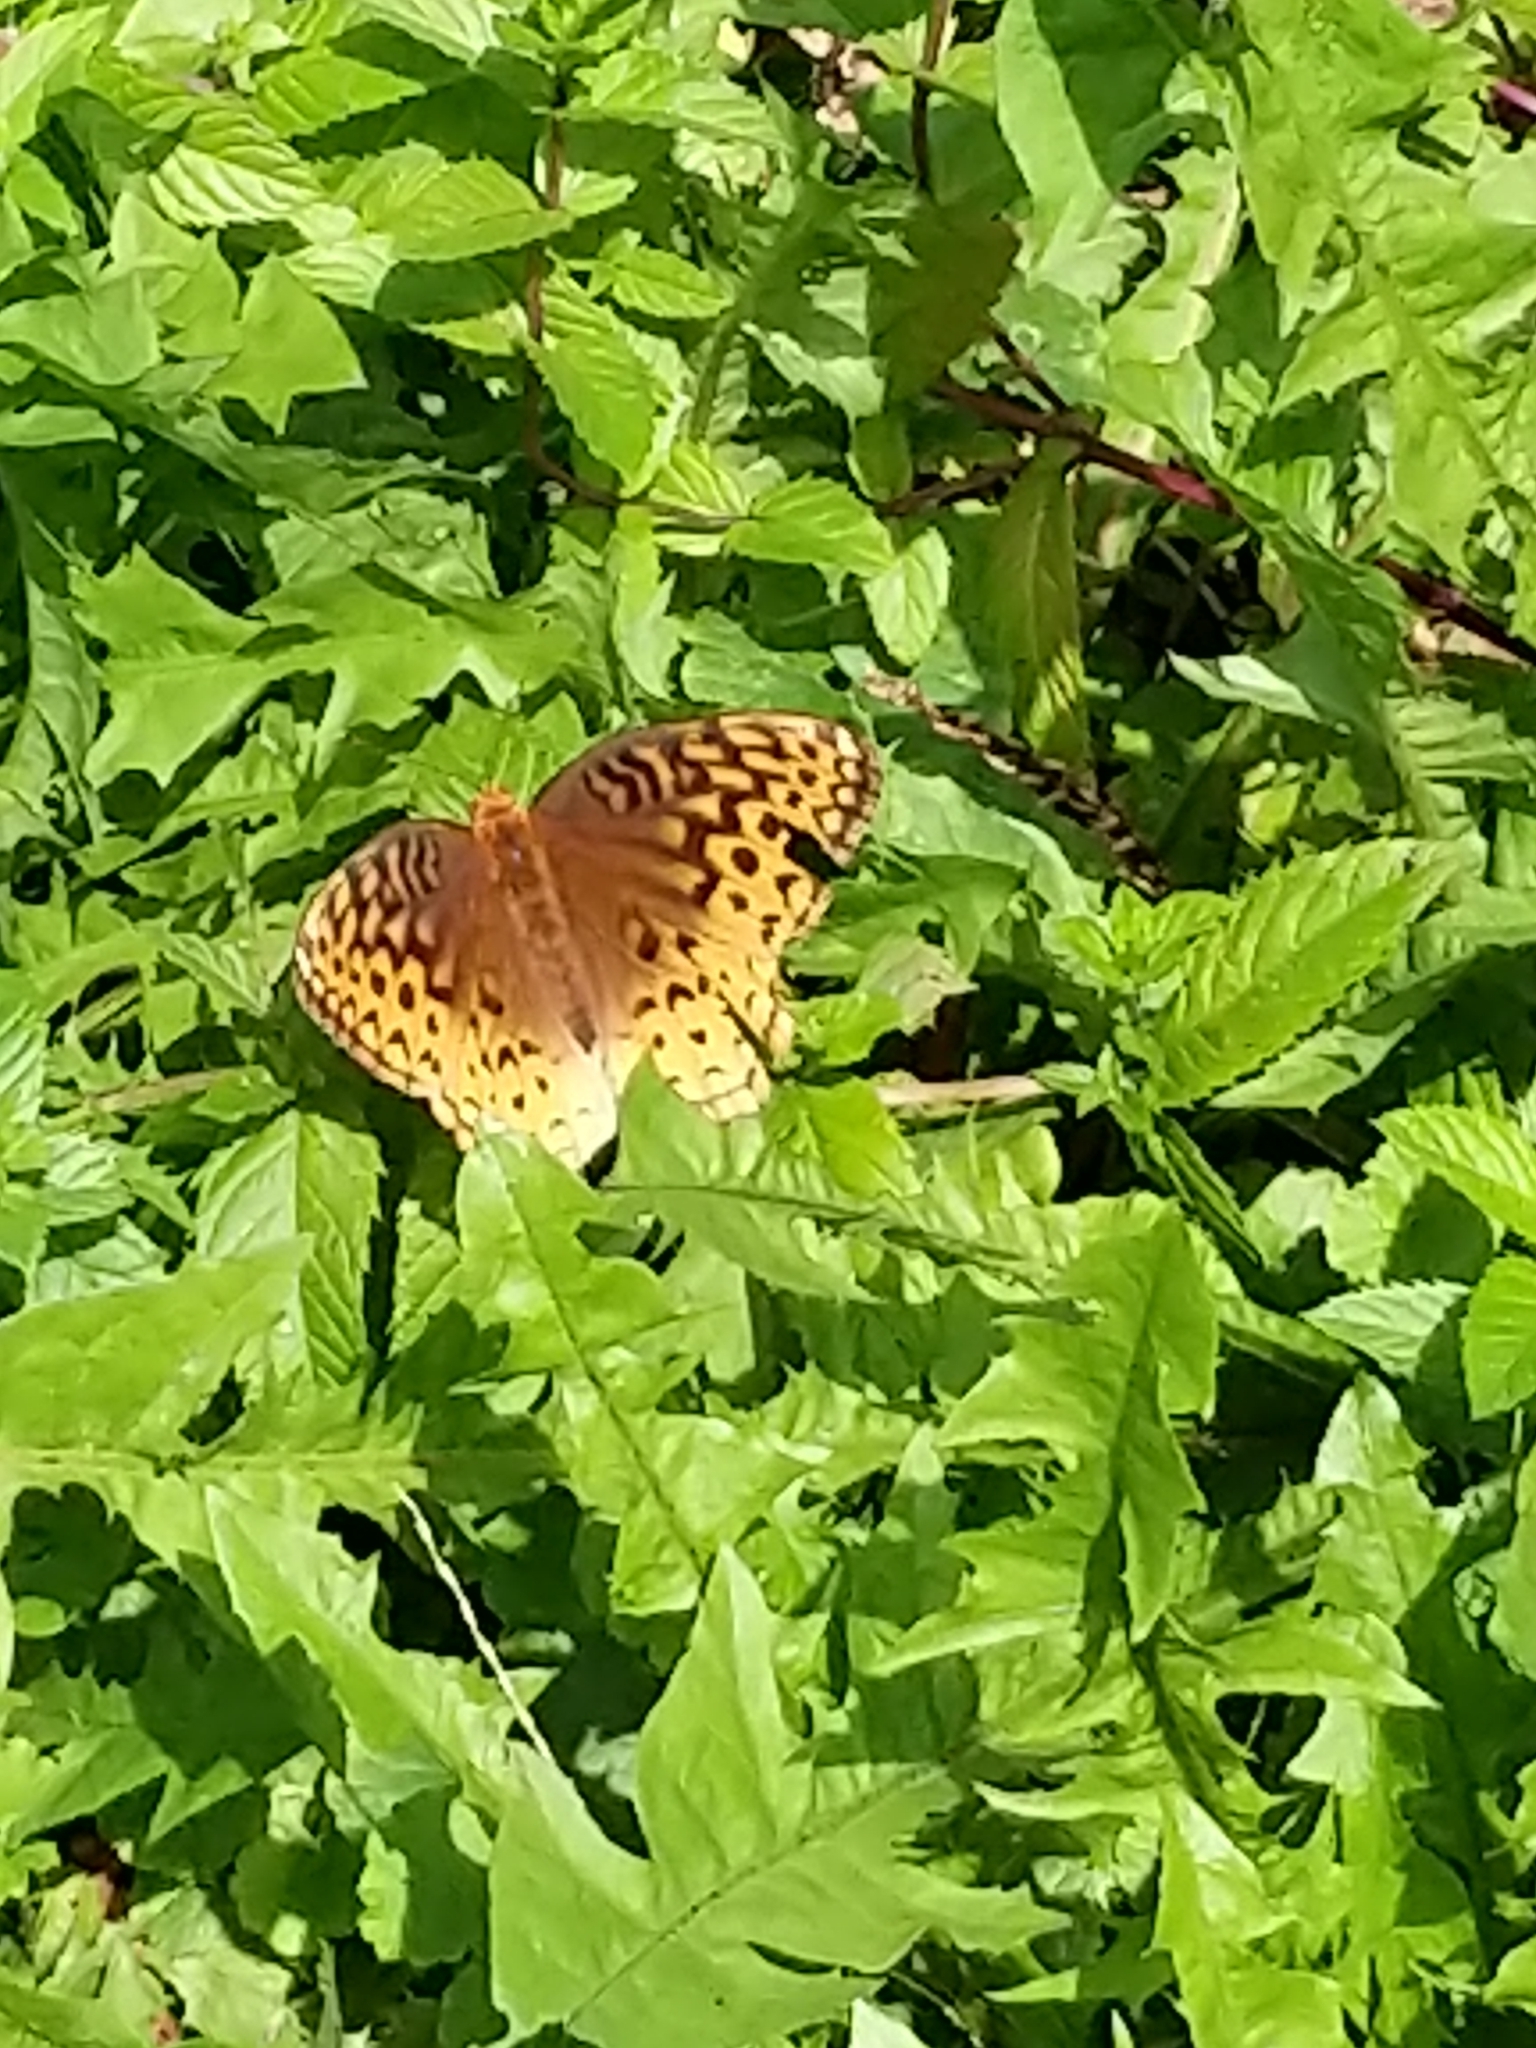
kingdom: Animalia
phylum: Arthropoda
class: Insecta
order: Lepidoptera
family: Nymphalidae
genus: Speyeria
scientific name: Speyeria cybele
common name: Great spangled fritillary
